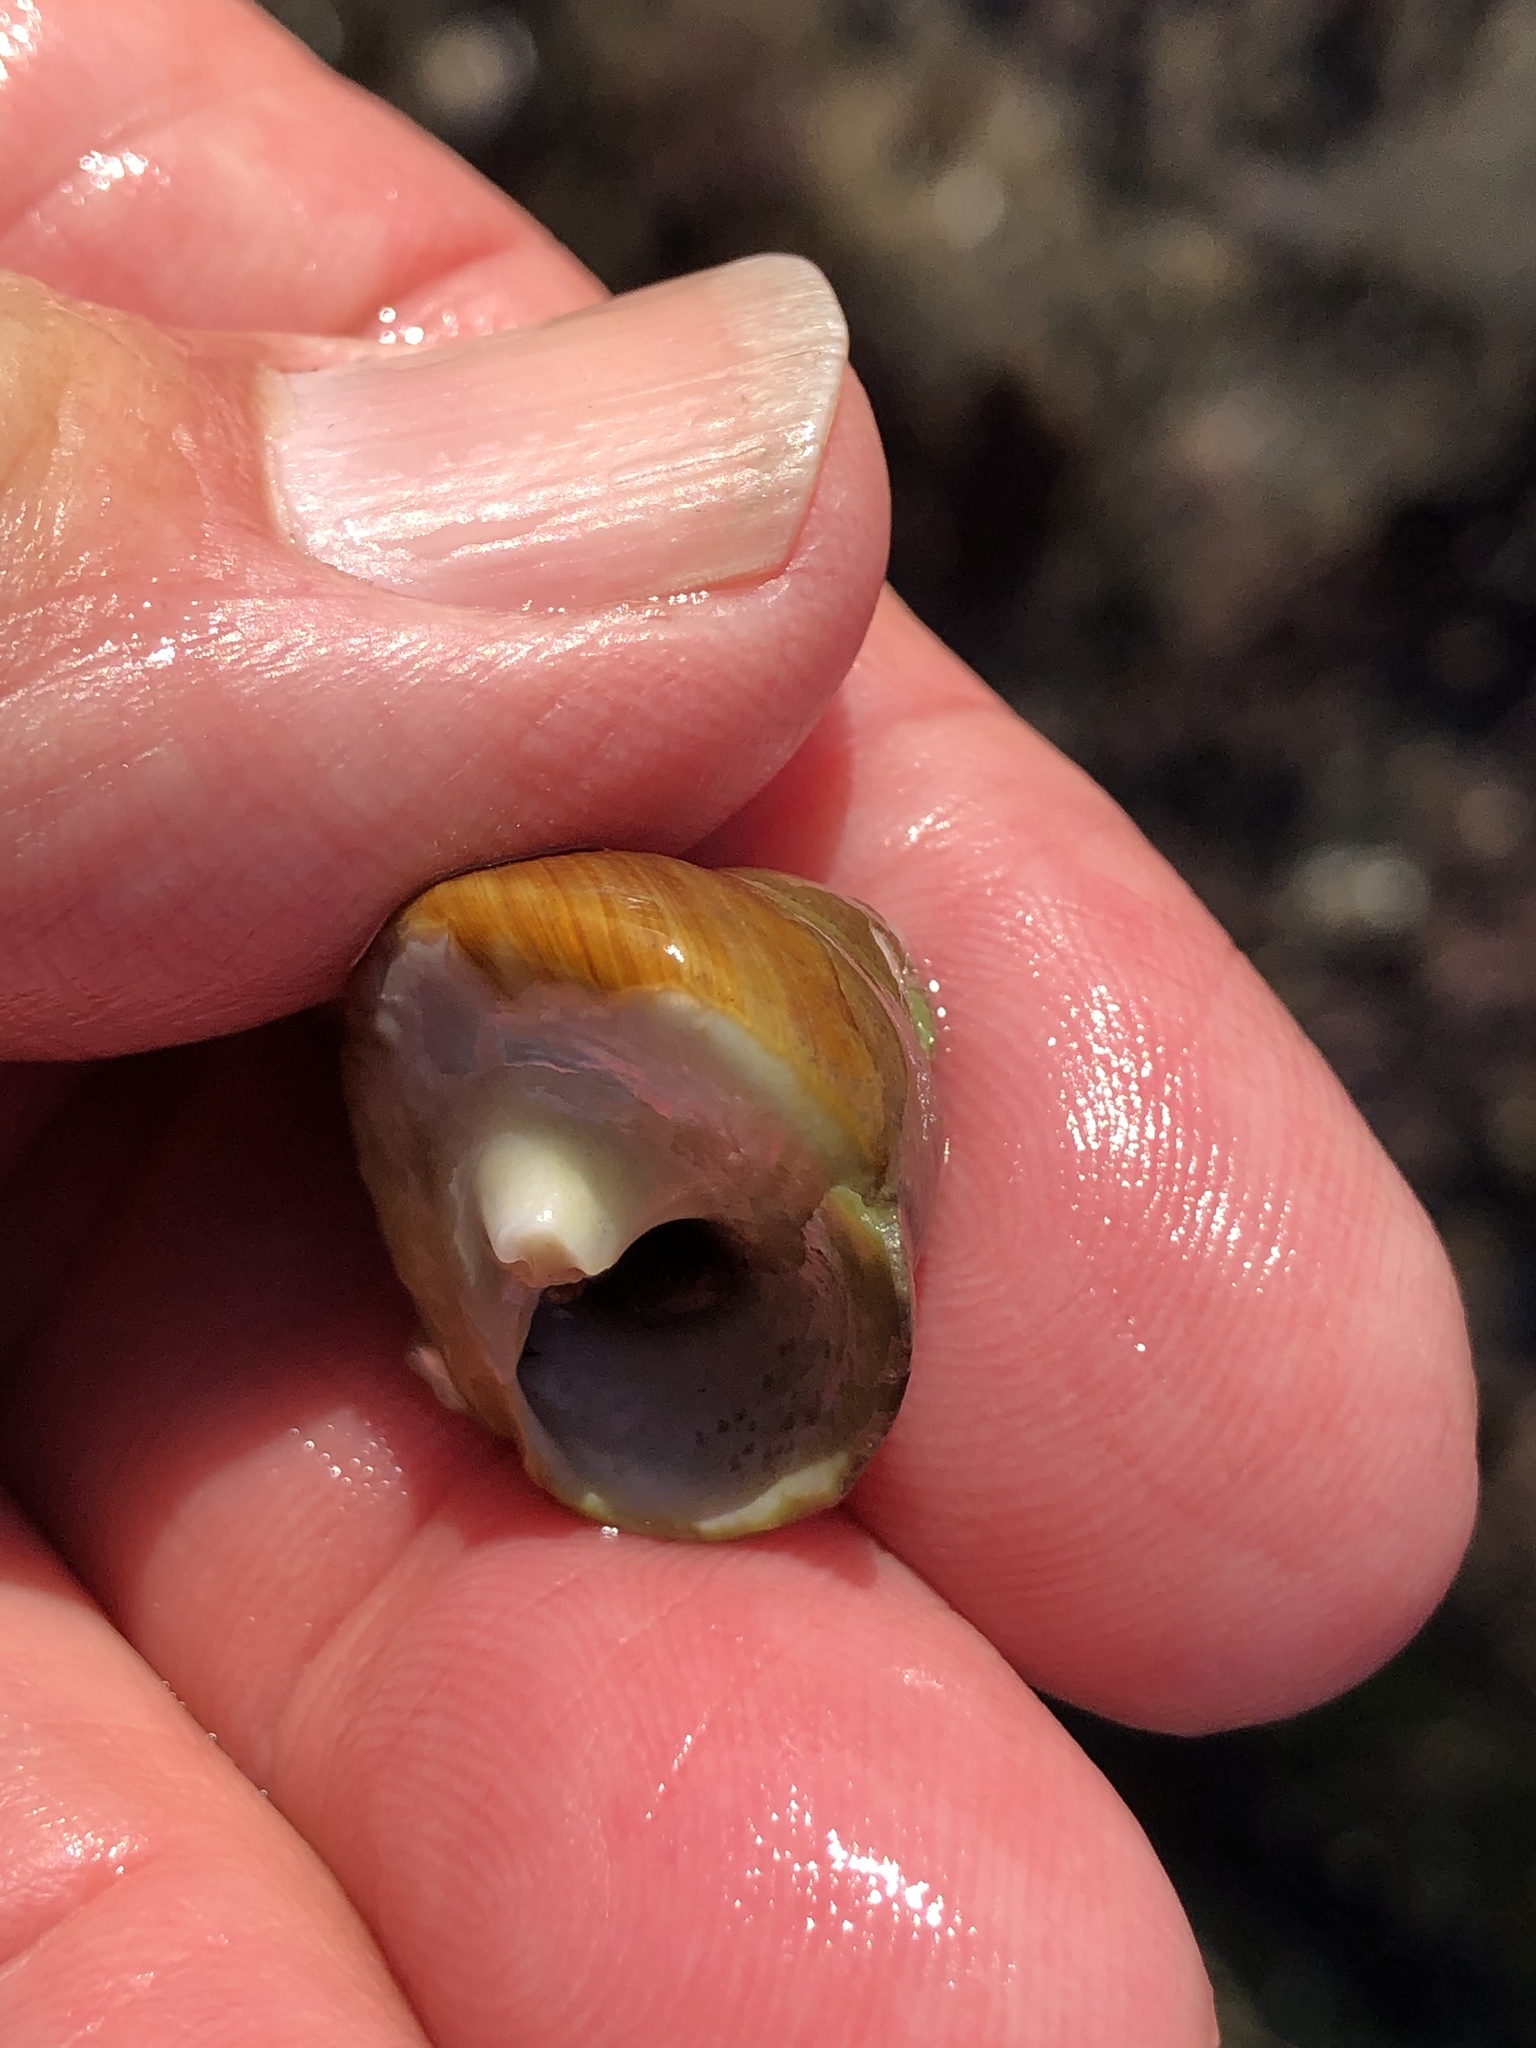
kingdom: Animalia
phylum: Mollusca
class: Gastropoda
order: Trochida
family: Tegulidae
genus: Tegula
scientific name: Tegula brunnea
